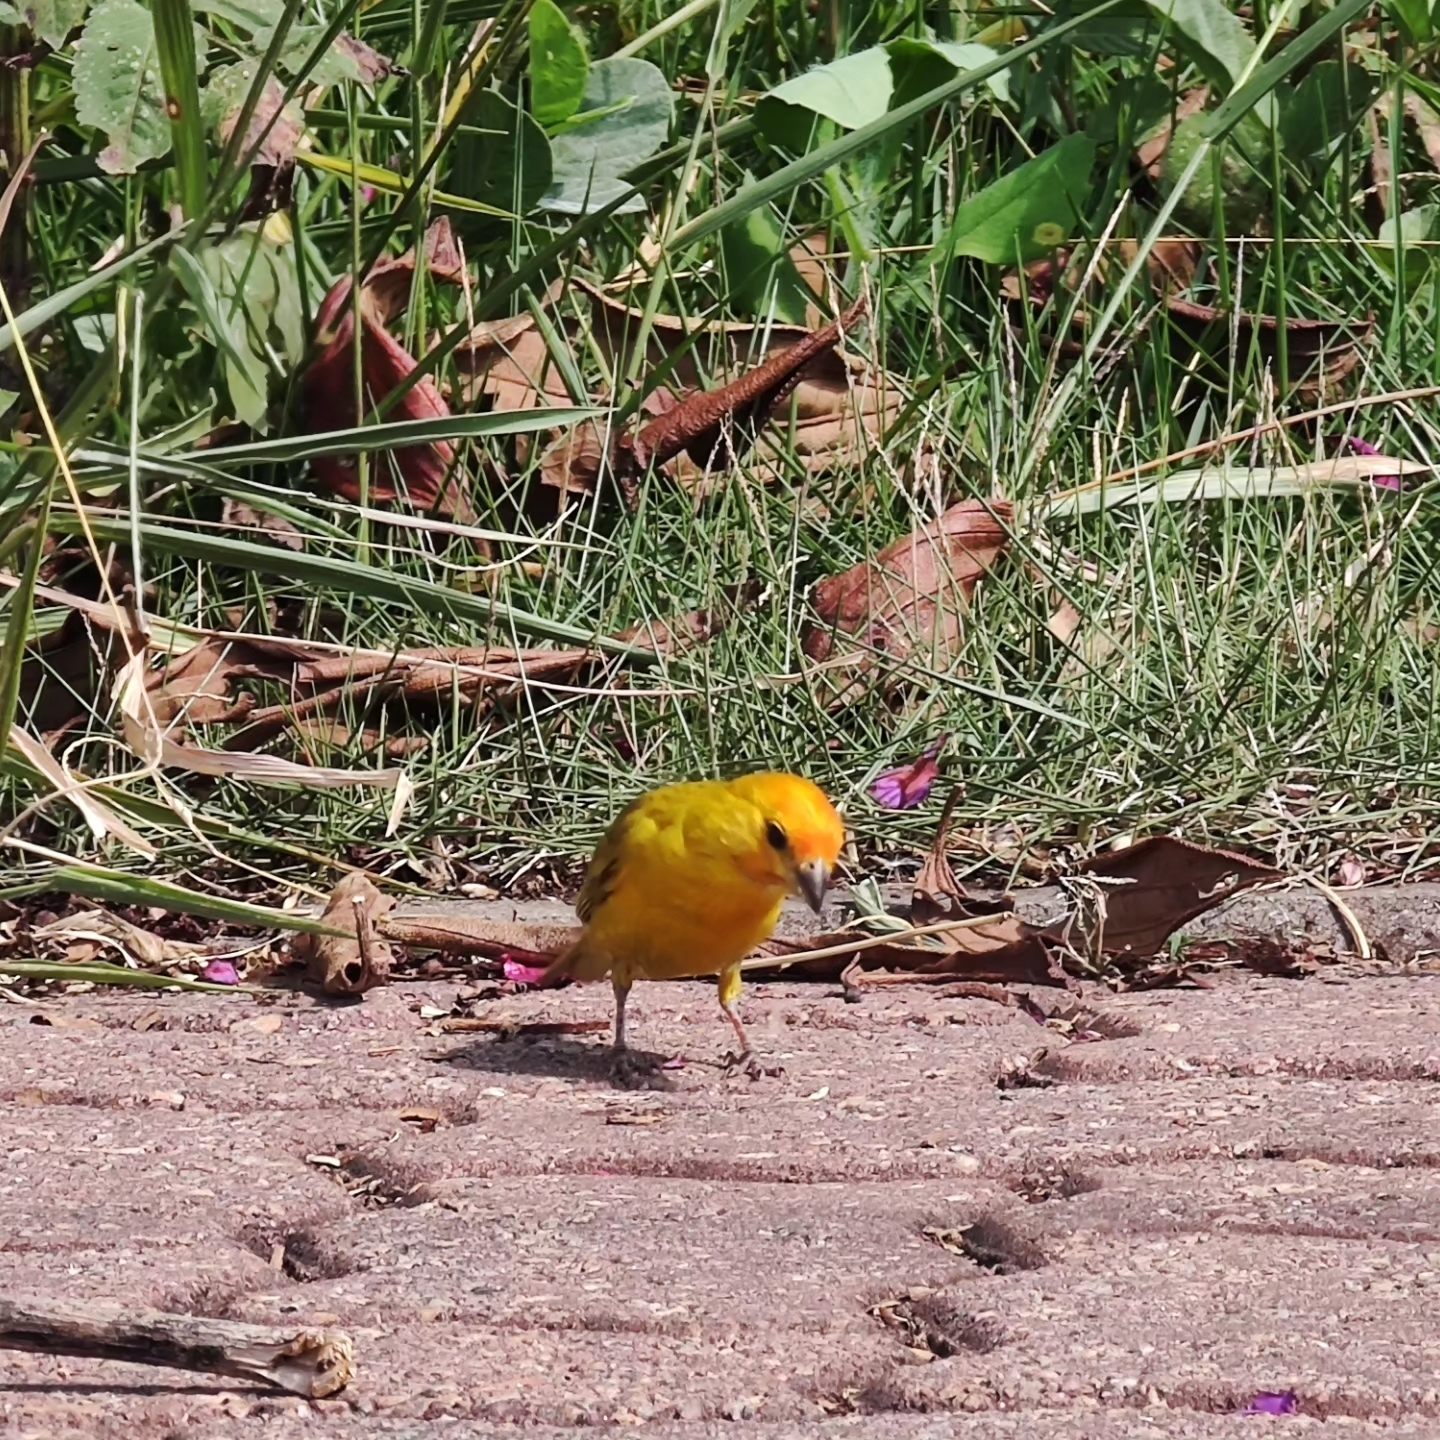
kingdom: Animalia
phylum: Chordata
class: Aves
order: Passeriformes
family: Thraupidae
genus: Sicalis
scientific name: Sicalis flaveola
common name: Saffron finch
